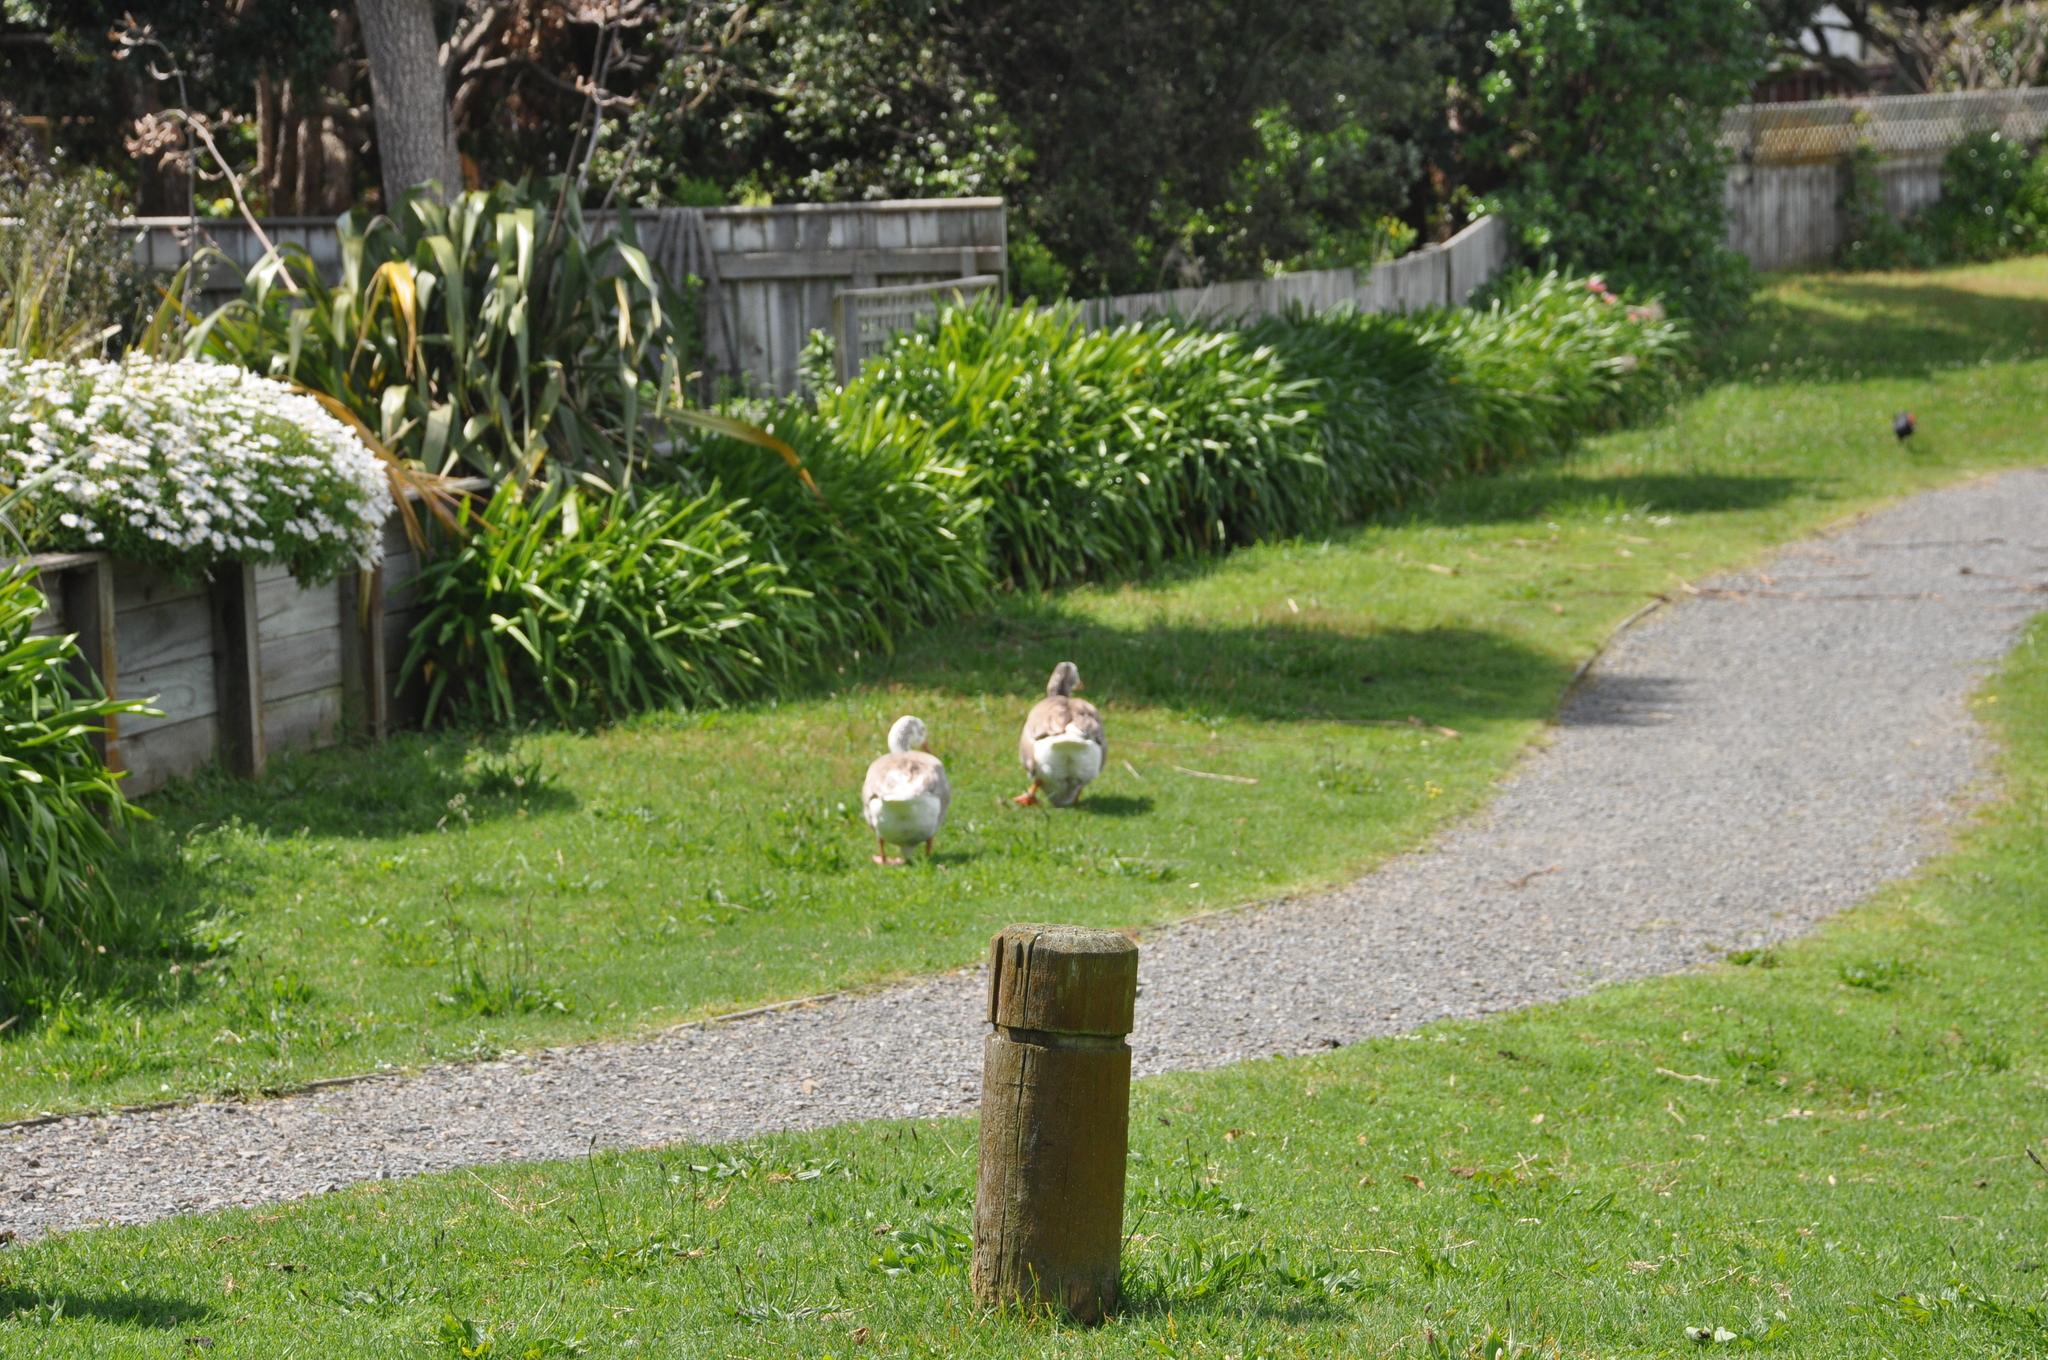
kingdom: Animalia
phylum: Chordata
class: Aves
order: Anseriformes
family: Anatidae
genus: Anser
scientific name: Anser anser
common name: Greylag goose
